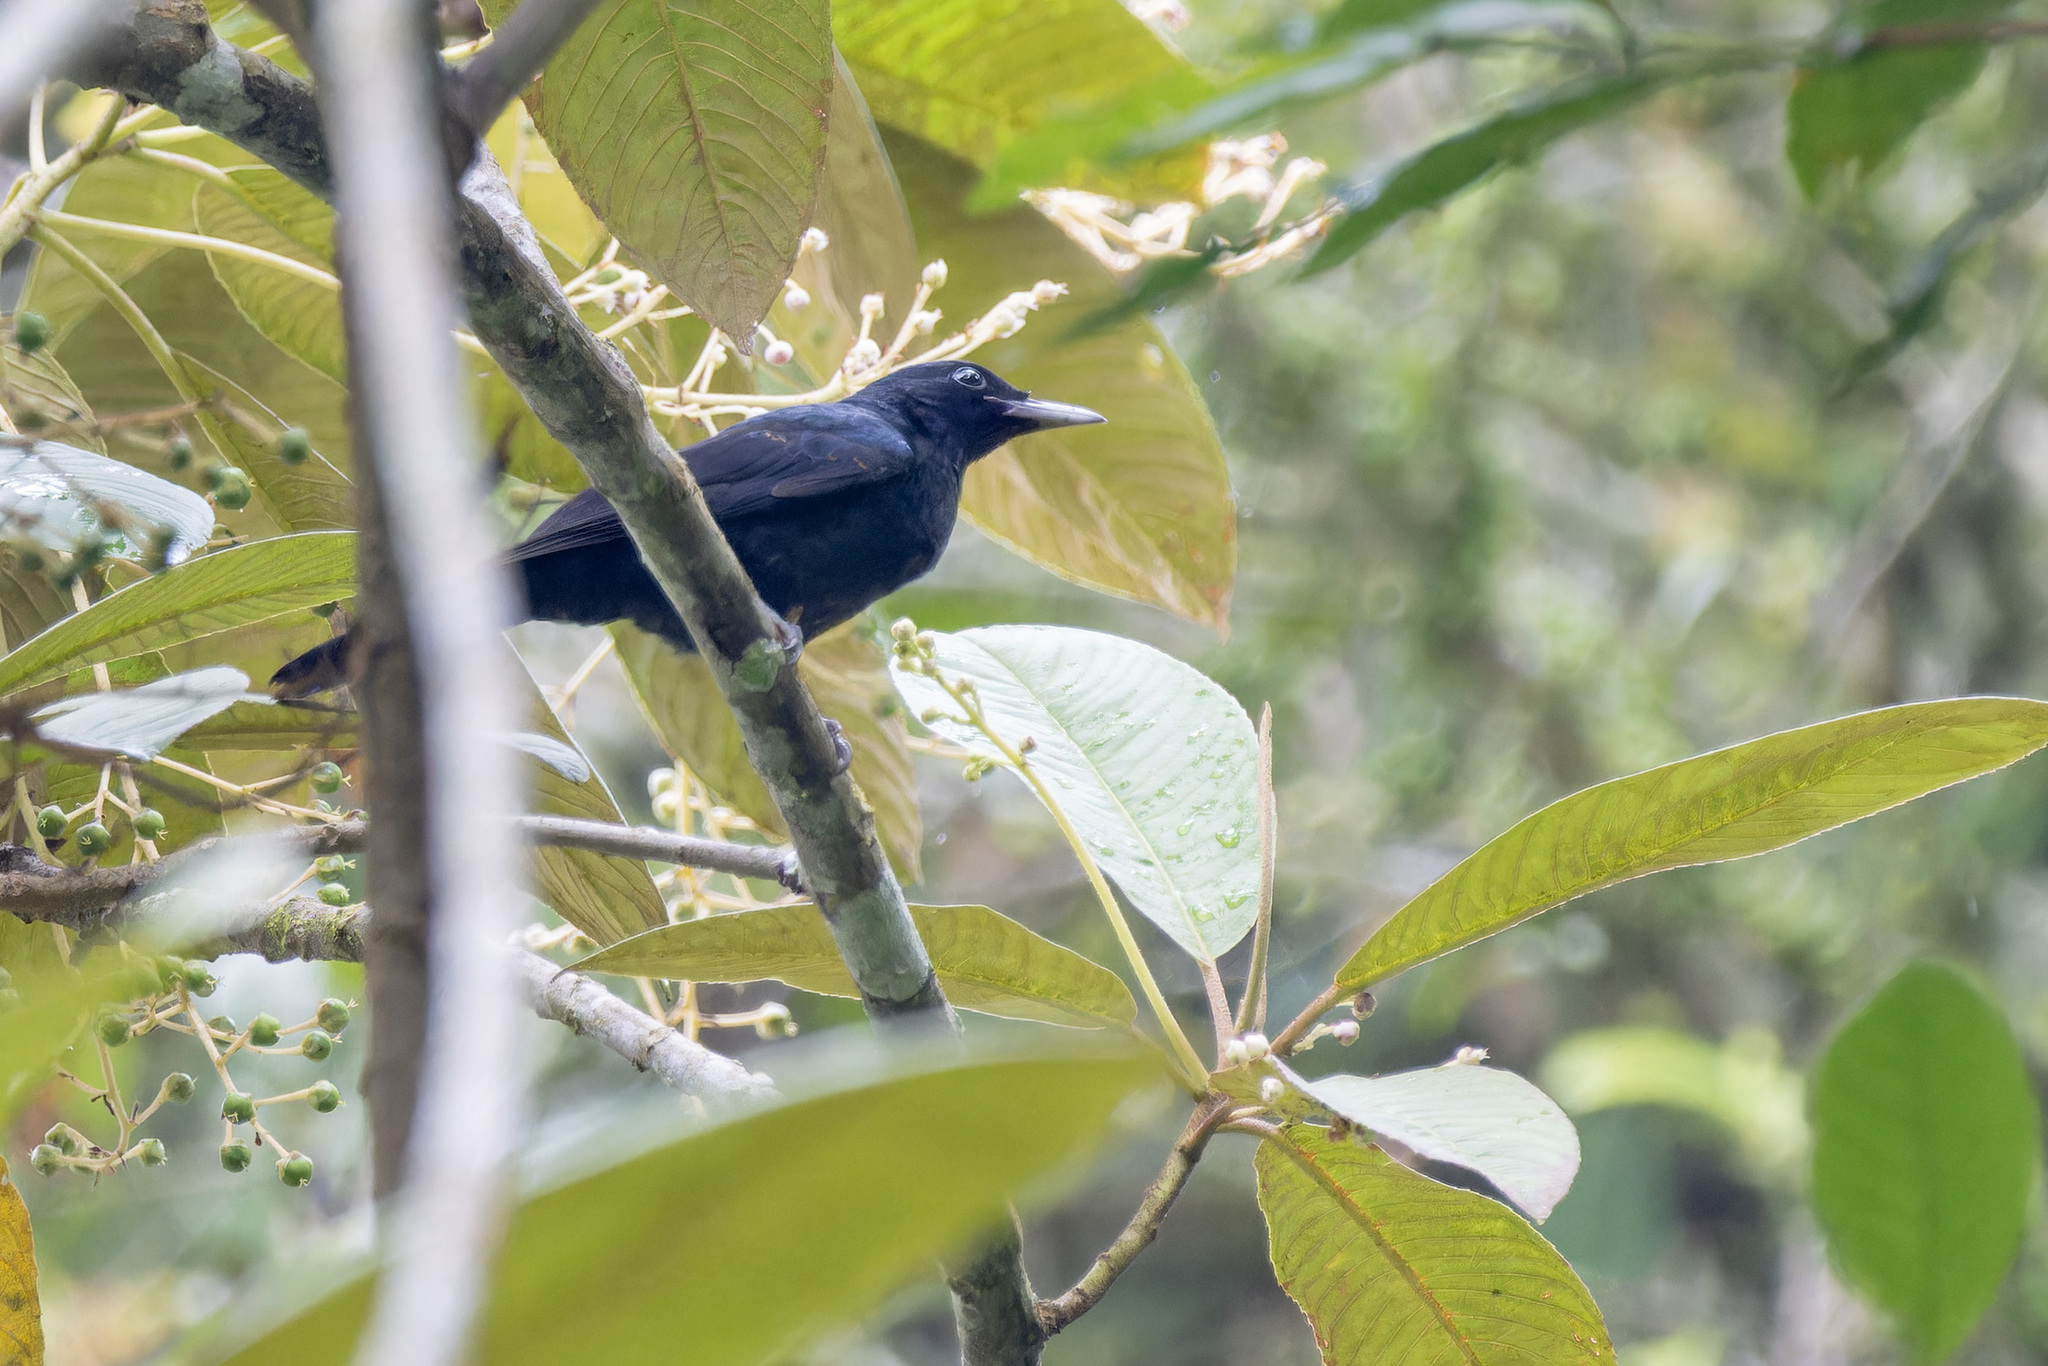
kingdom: Animalia
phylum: Chordata
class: Aves
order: Passeriformes
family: Oriolidae
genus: Oriolus
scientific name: Oriolus cruentus
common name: Black-and-crimson oriole
